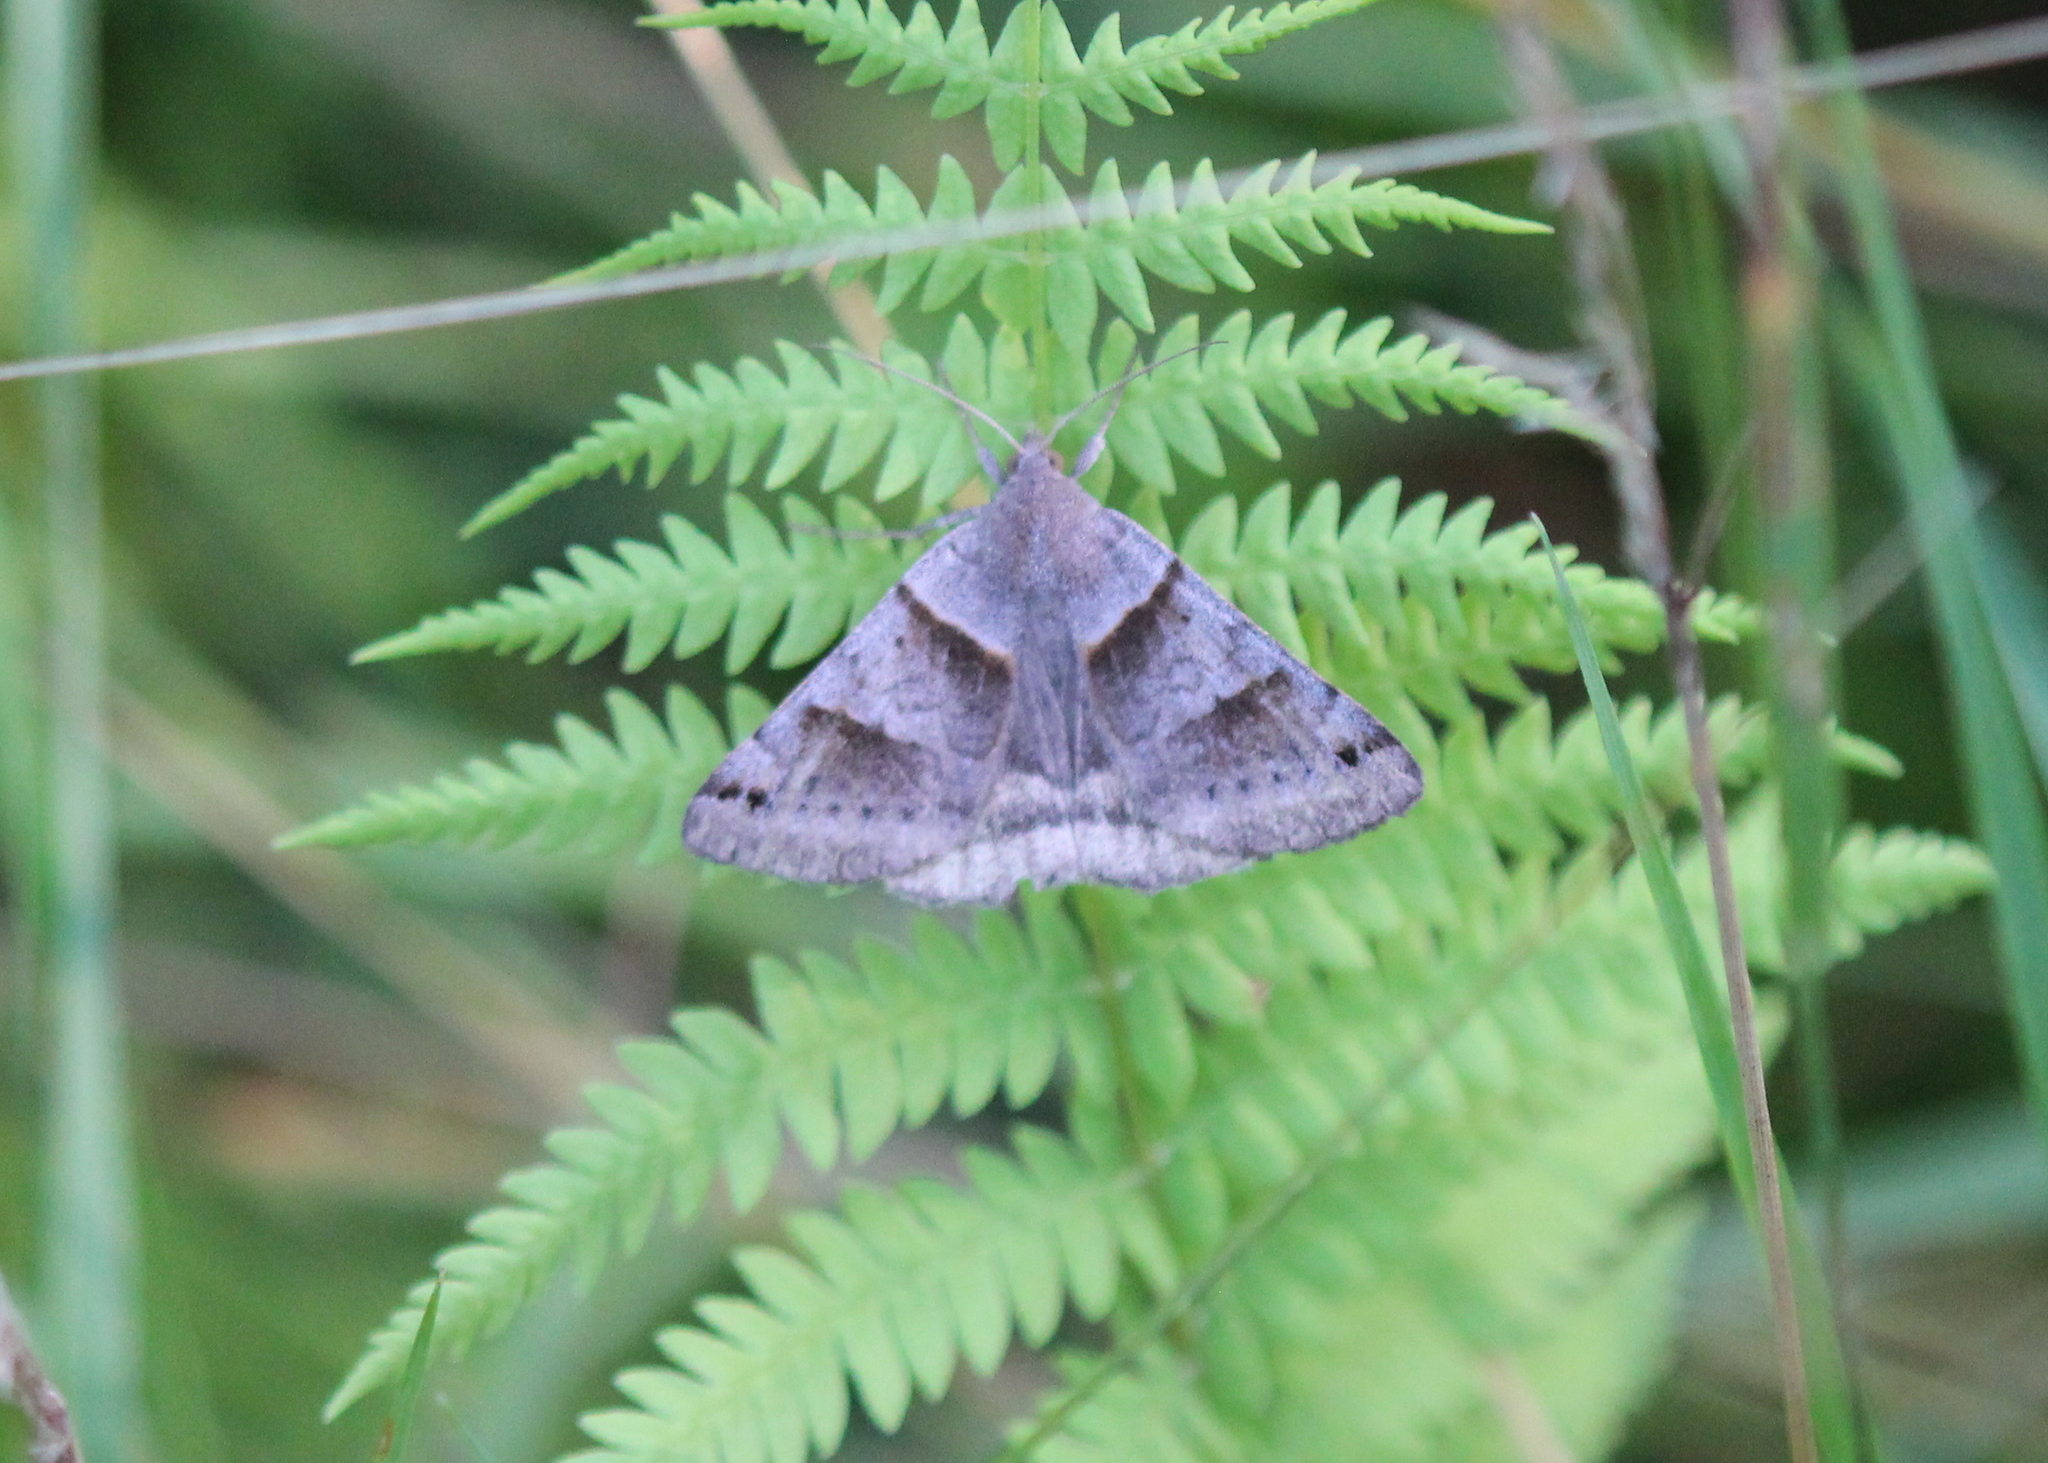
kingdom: Animalia
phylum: Arthropoda
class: Insecta
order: Lepidoptera
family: Erebidae
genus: Caenurgina
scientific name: Caenurgina crassiuscula
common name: Double-barred
